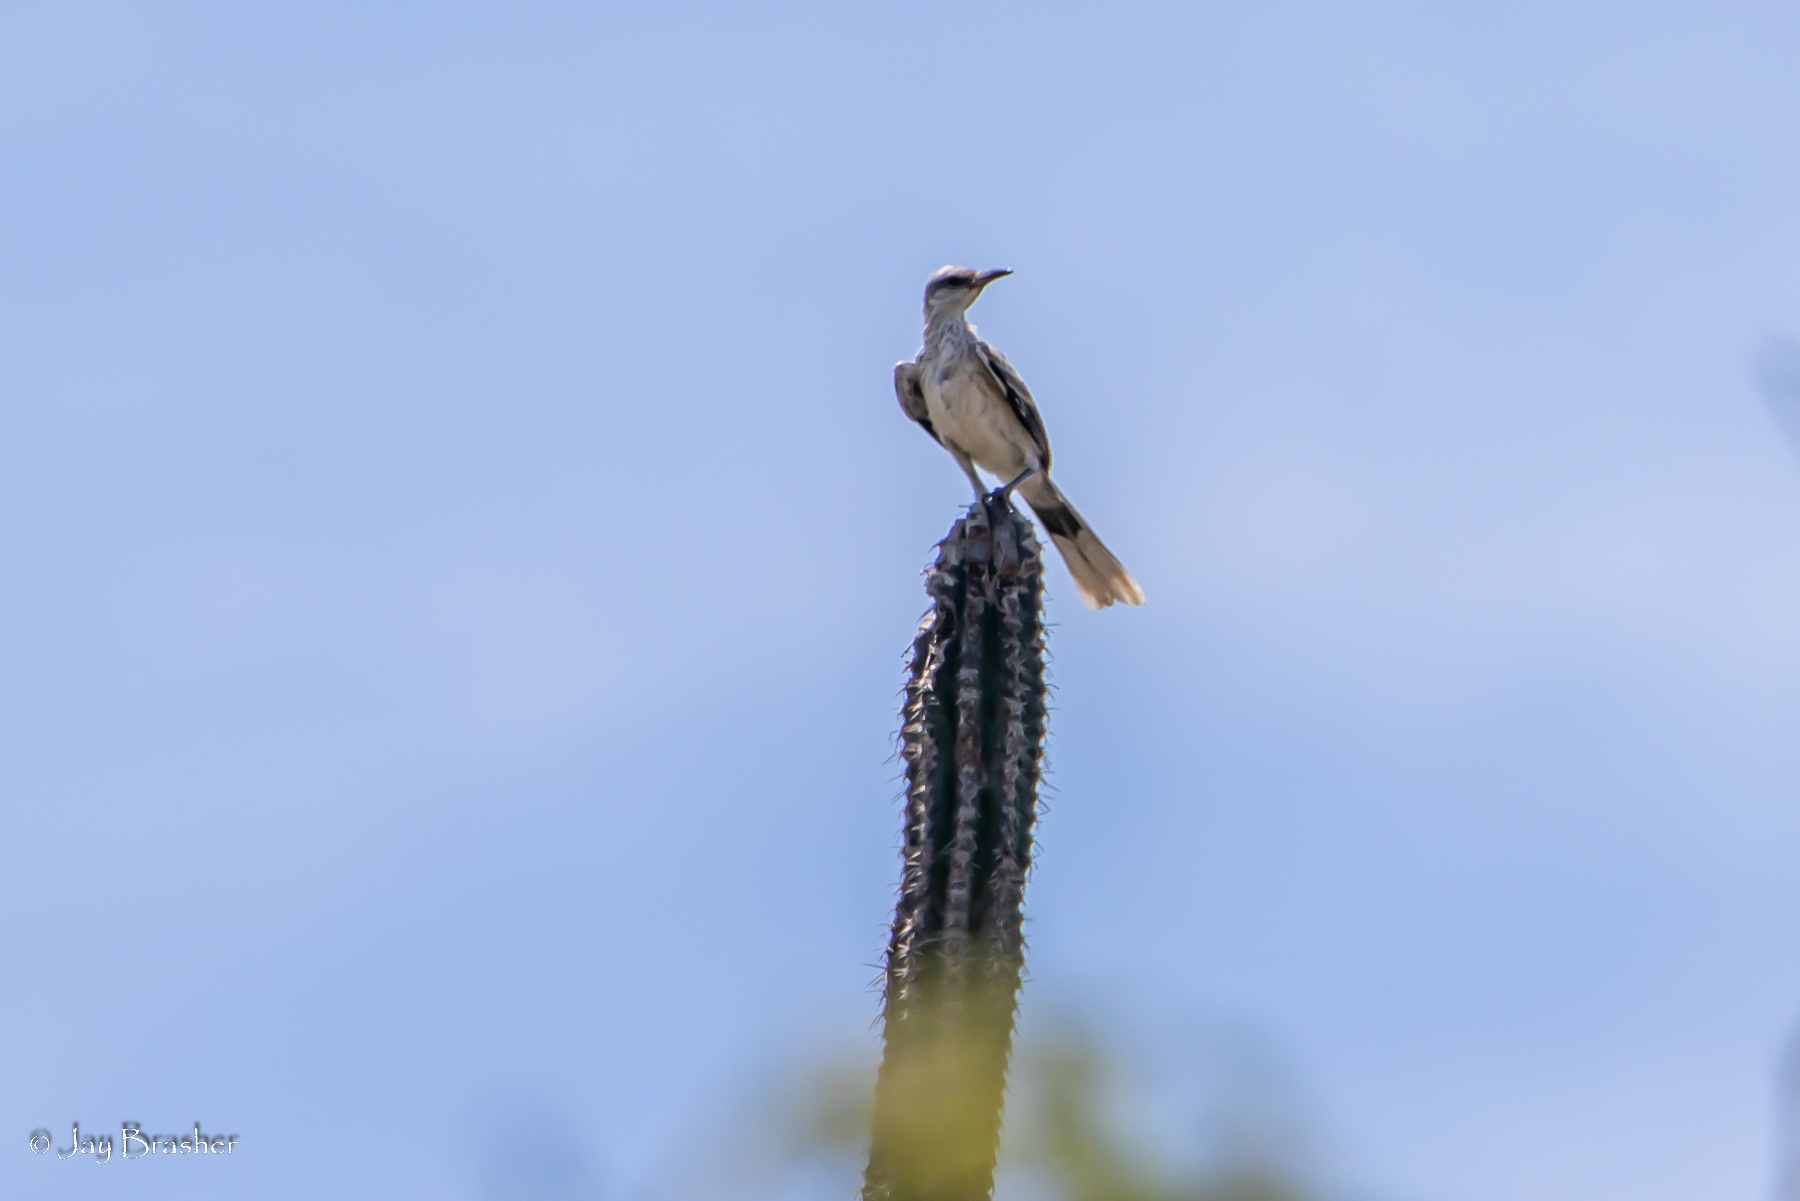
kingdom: Animalia
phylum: Chordata
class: Aves
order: Passeriformes
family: Mimidae
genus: Mimus
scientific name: Mimus gilvus
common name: Tropical mockingbird
